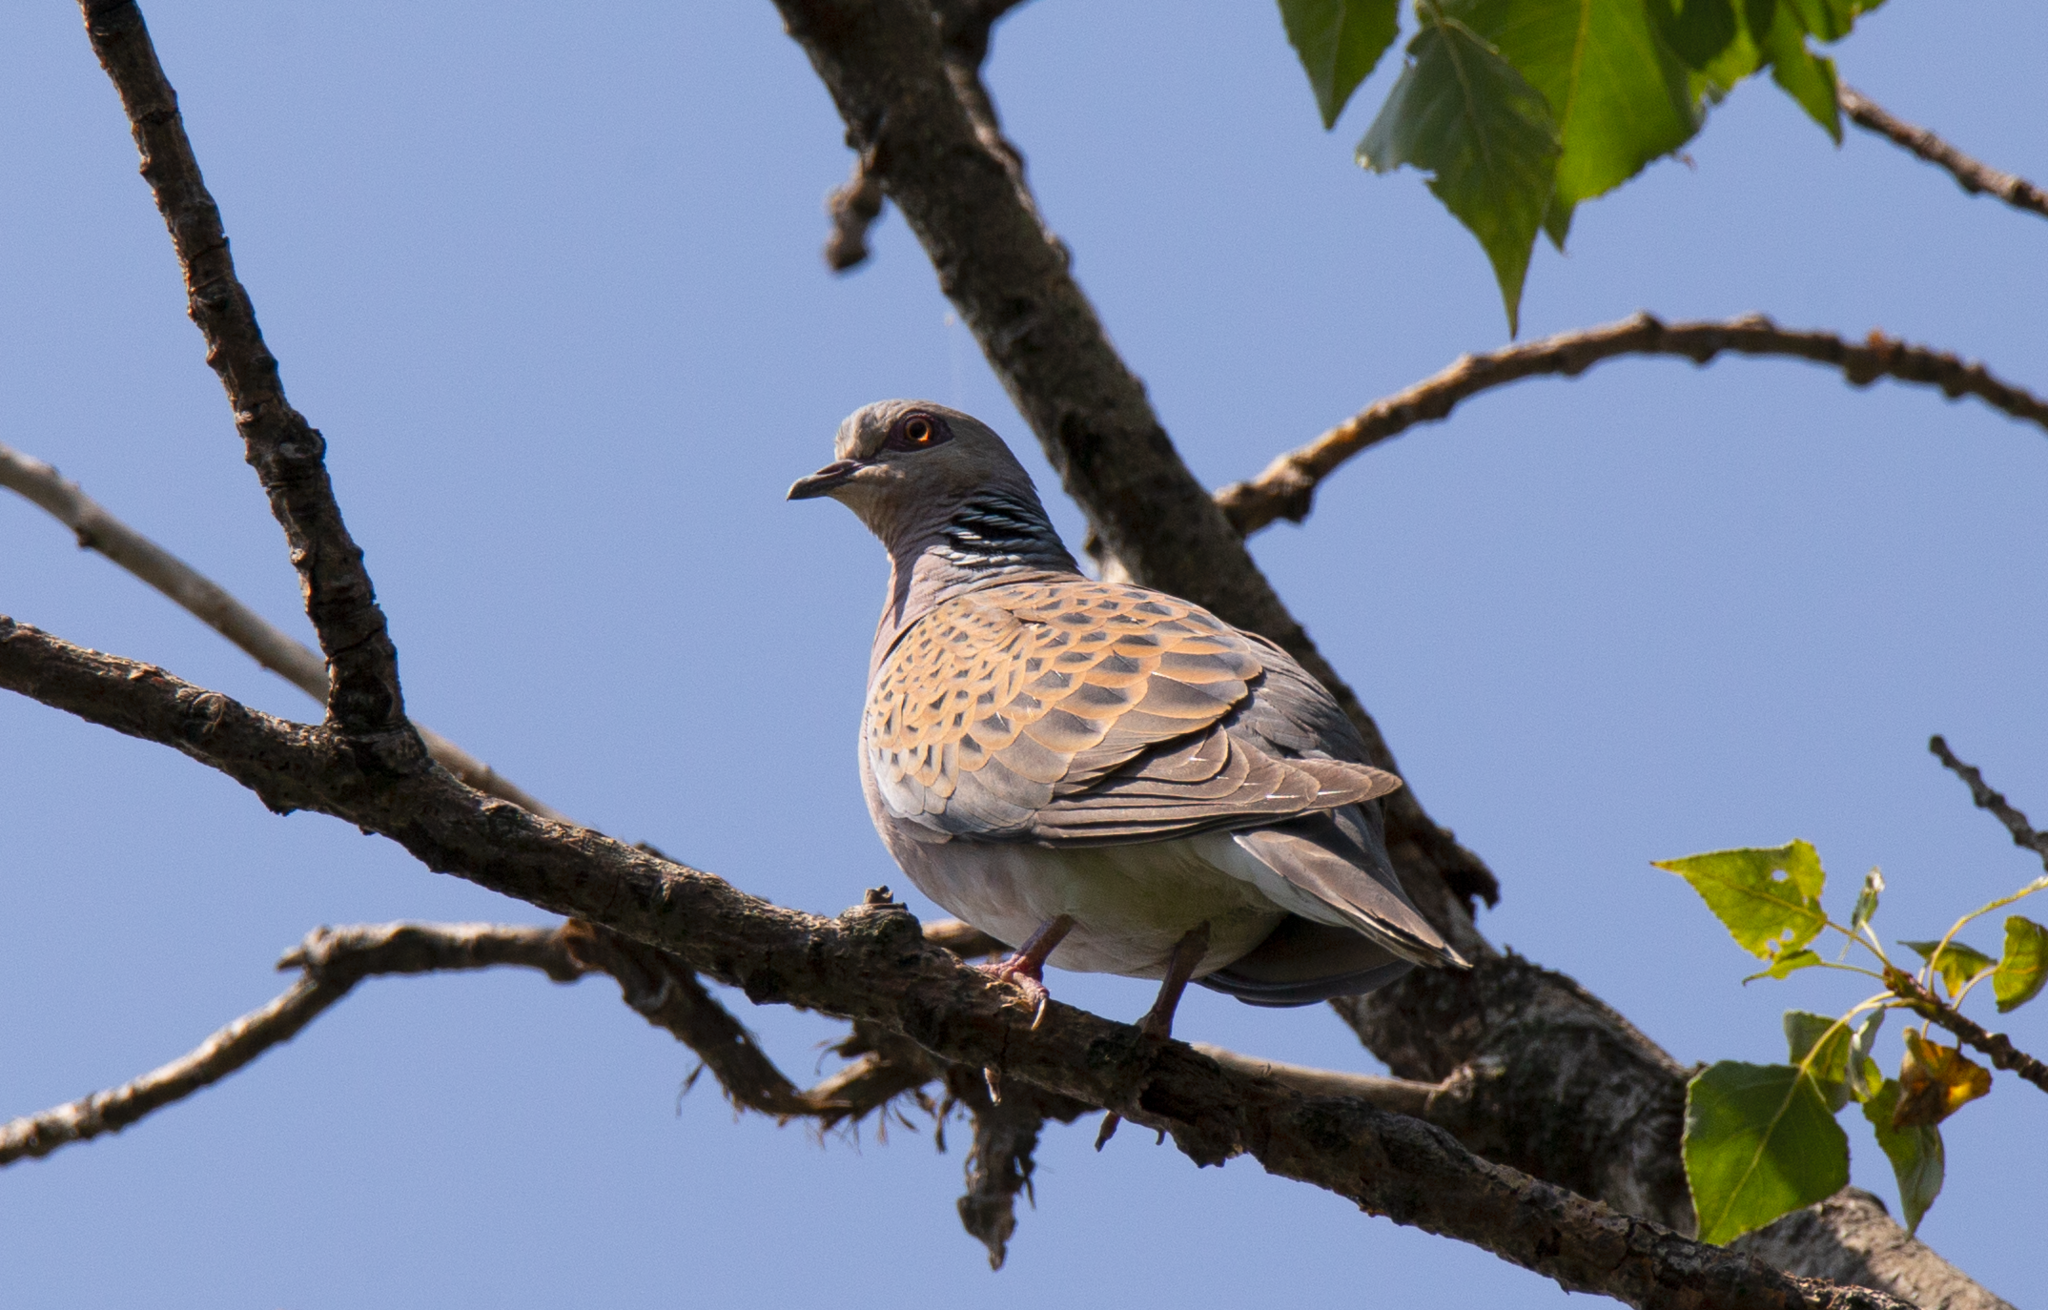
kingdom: Animalia
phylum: Chordata
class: Aves
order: Columbiformes
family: Columbidae
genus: Streptopelia
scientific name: Streptopelia turtur
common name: European turtle dove
